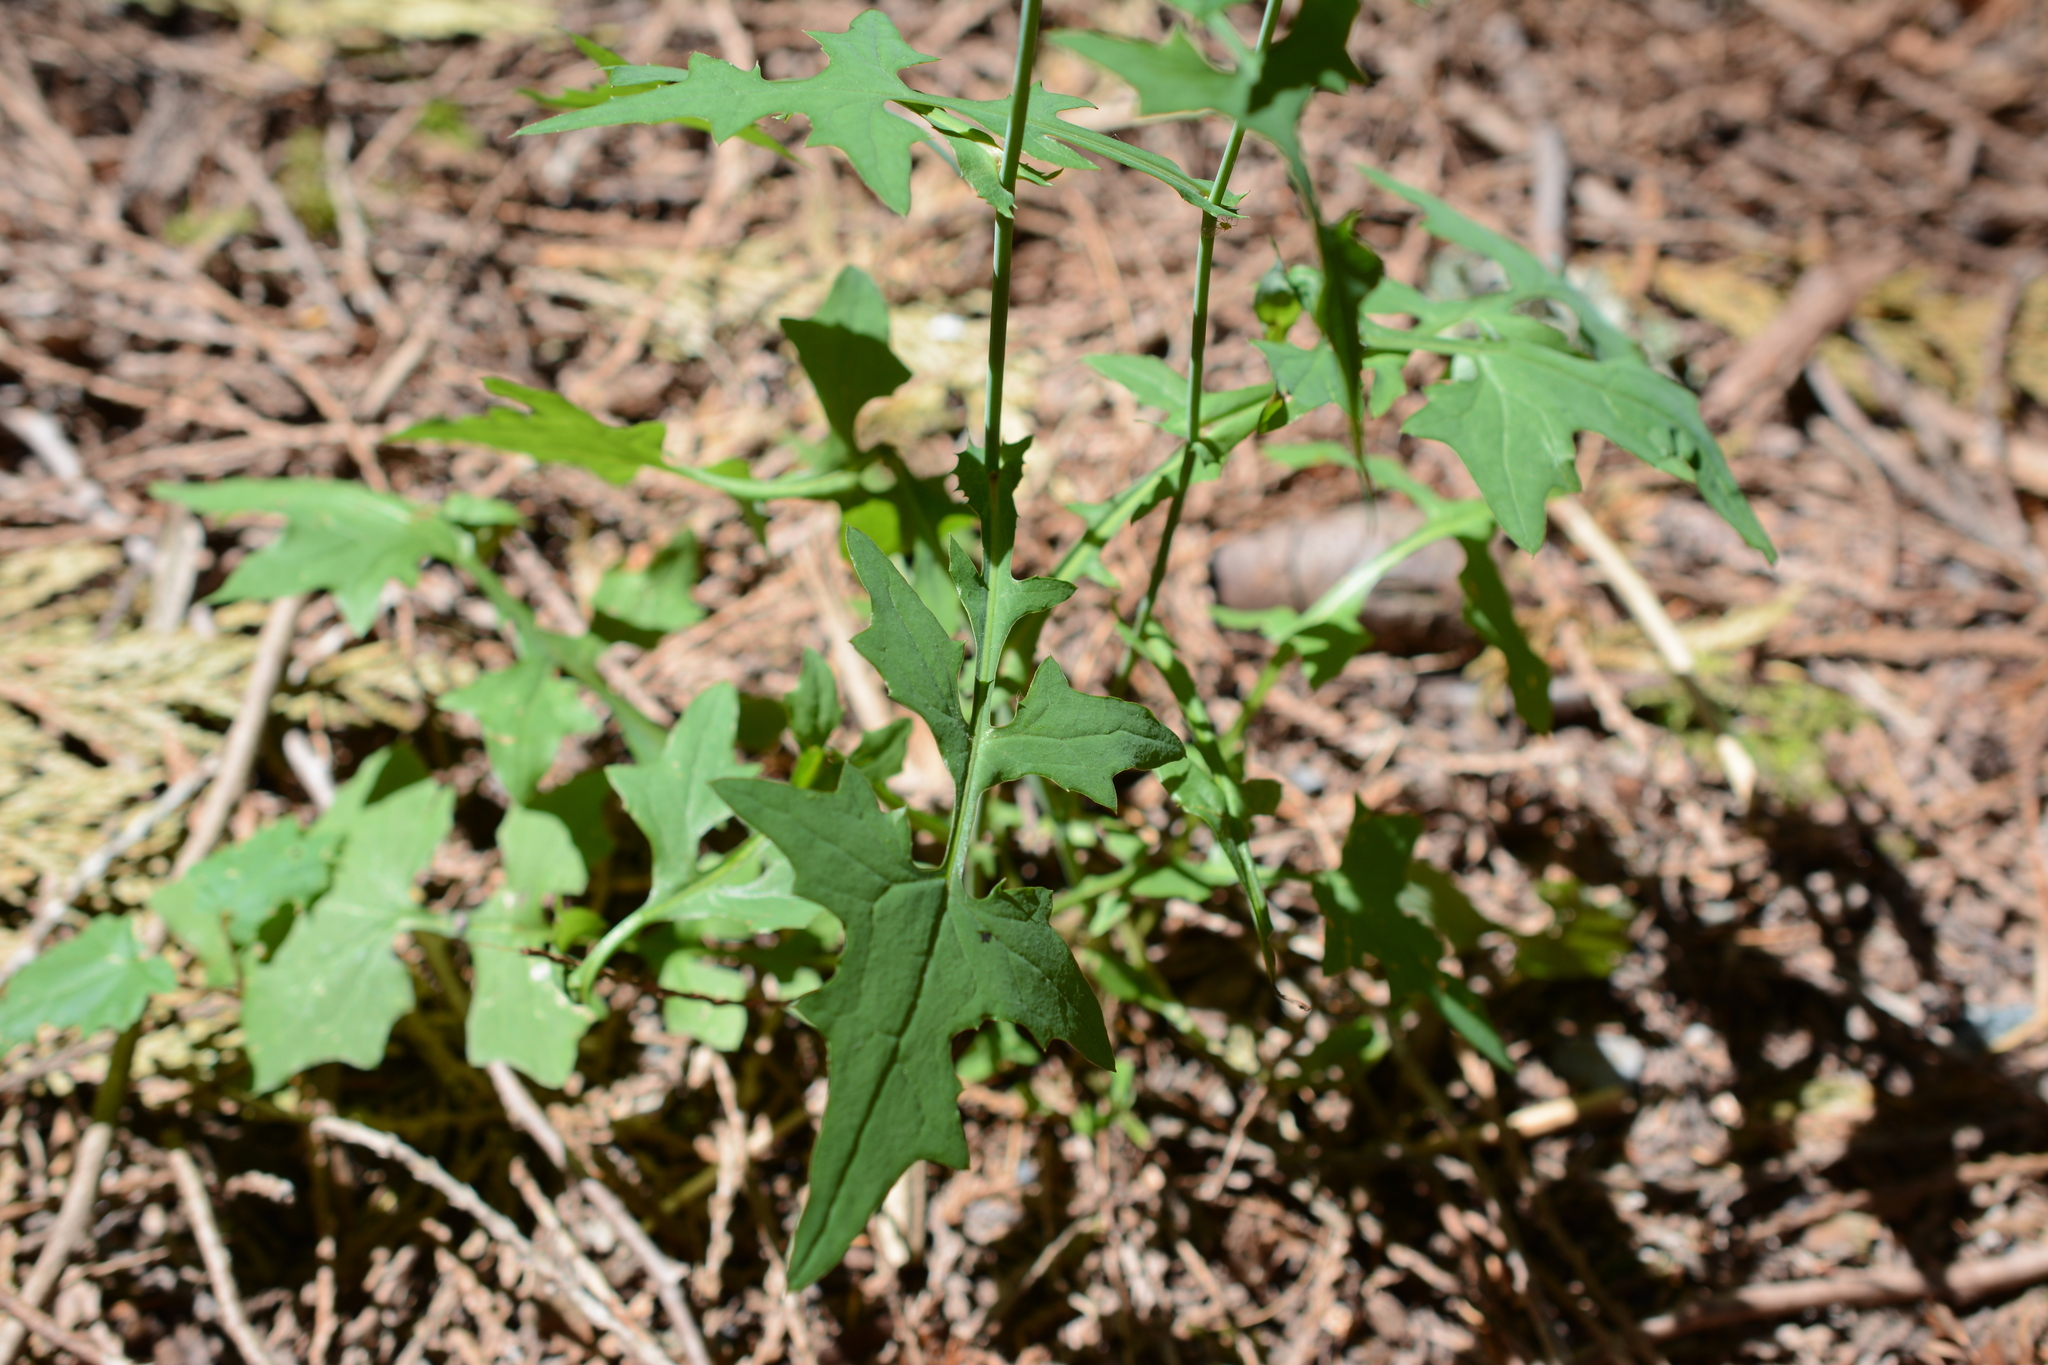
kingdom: Plantae
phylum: Tracheophyta
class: Magnoliopsida
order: Asterales
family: Asteraceae
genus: Mycelis
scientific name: Mycelis muralis
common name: Wall lettuce
